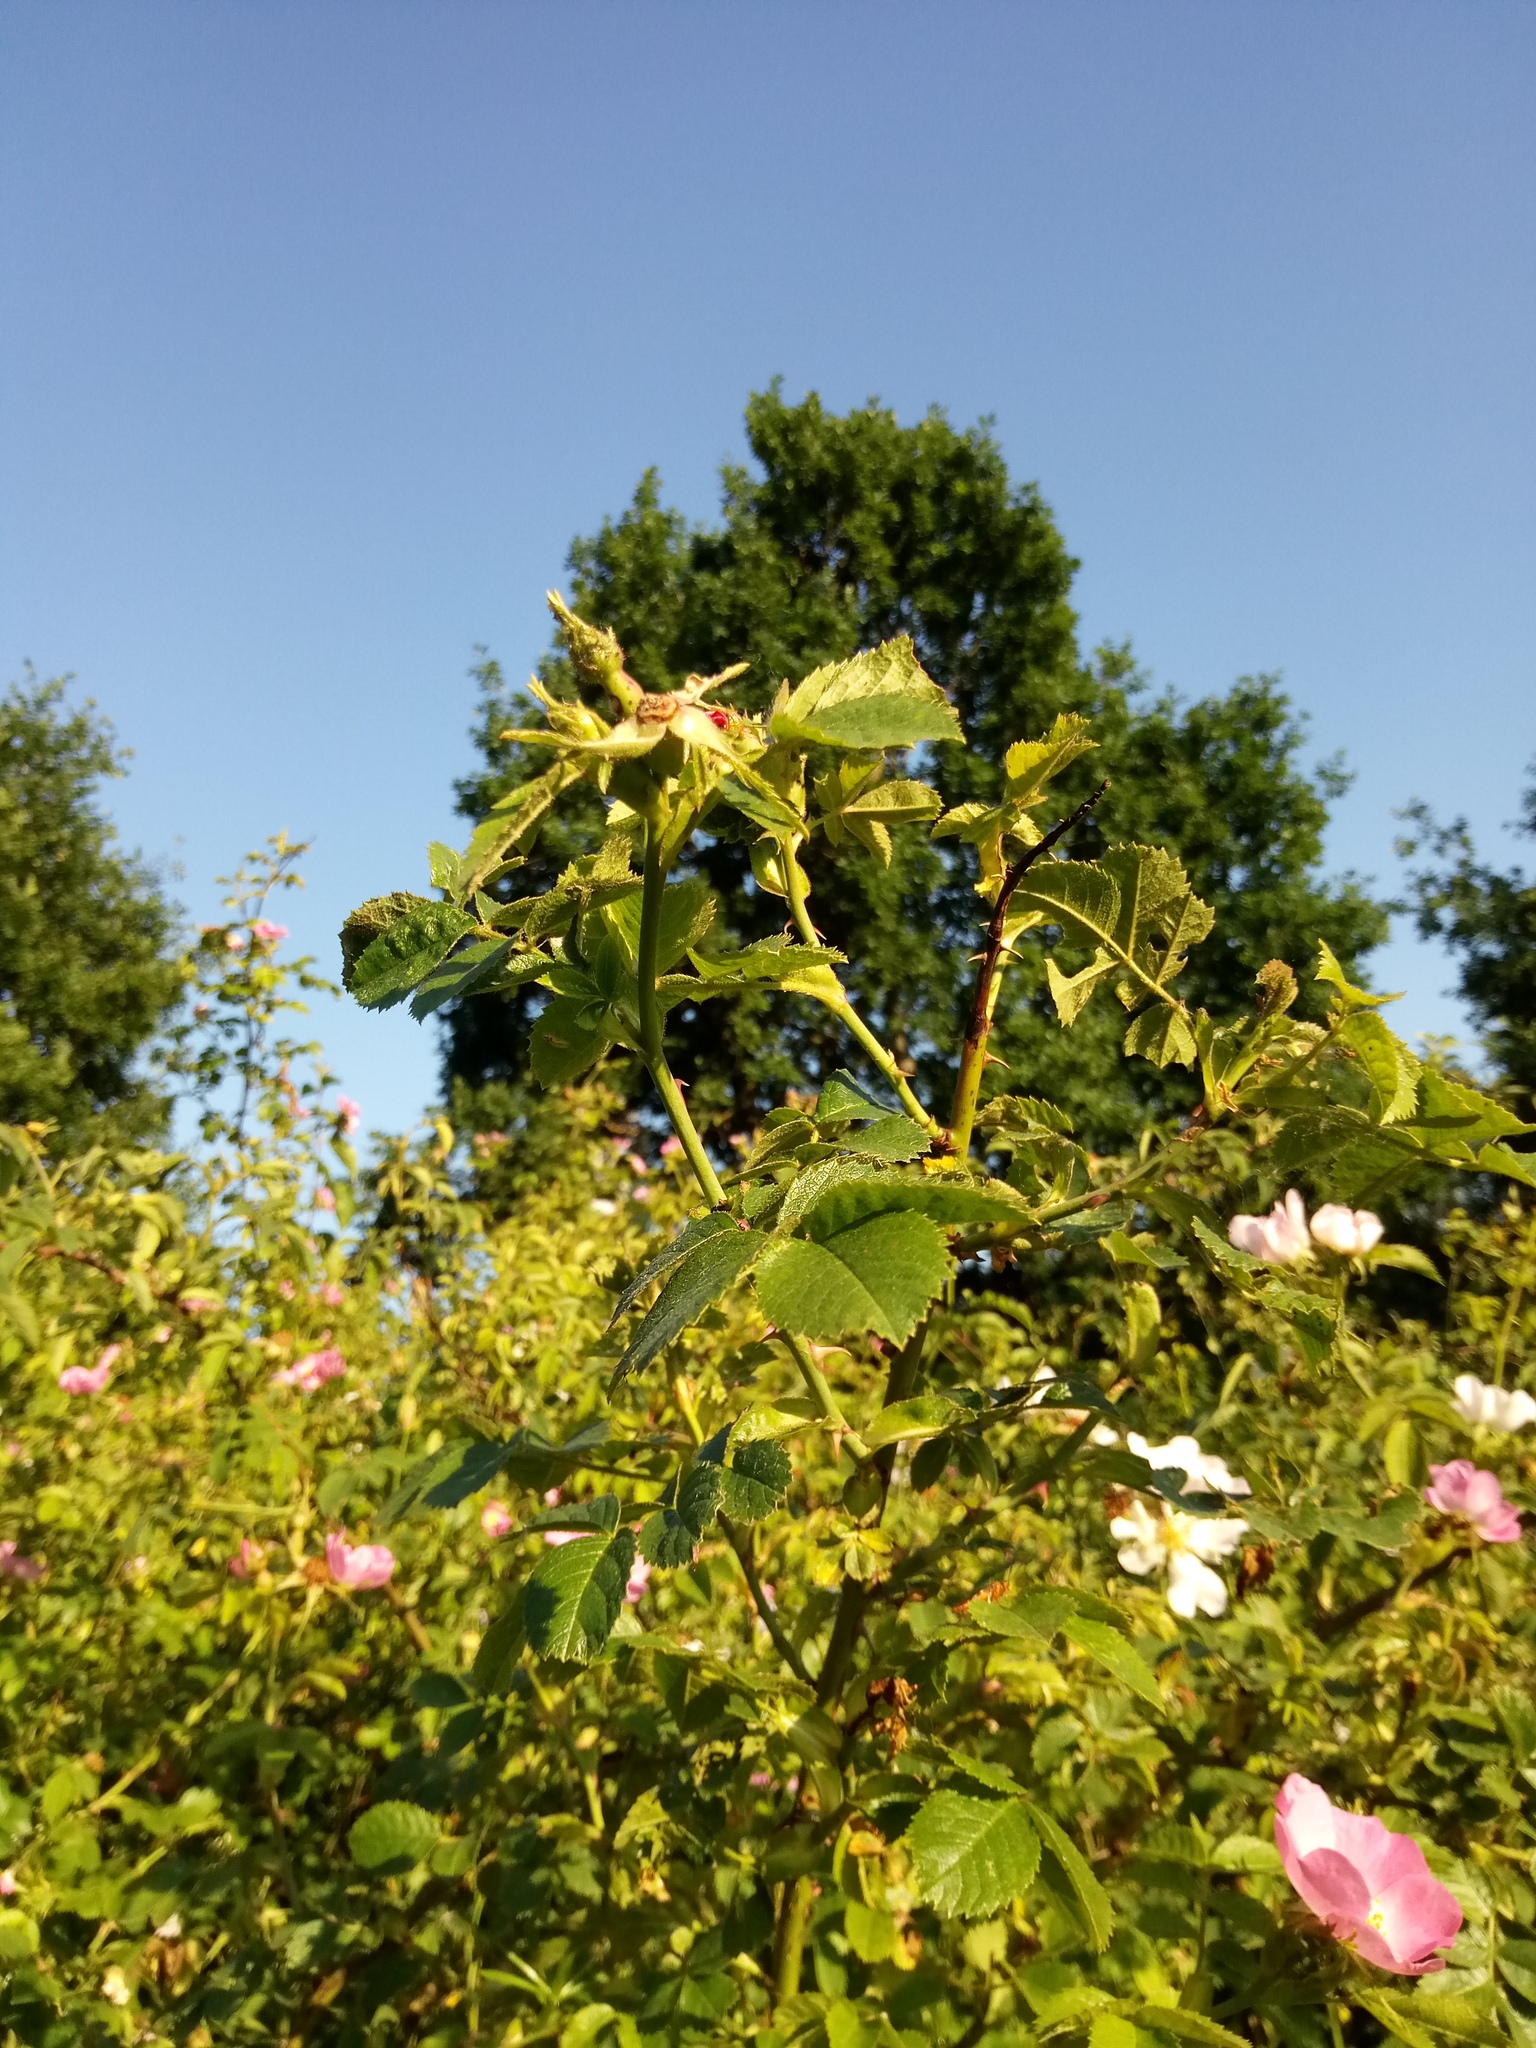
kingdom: Plantae
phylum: Tracheophyta
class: Magnoliopsida
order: Rosales
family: Rosaceae
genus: Rosa
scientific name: Rosa rubiginosa
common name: Sweet-briar
